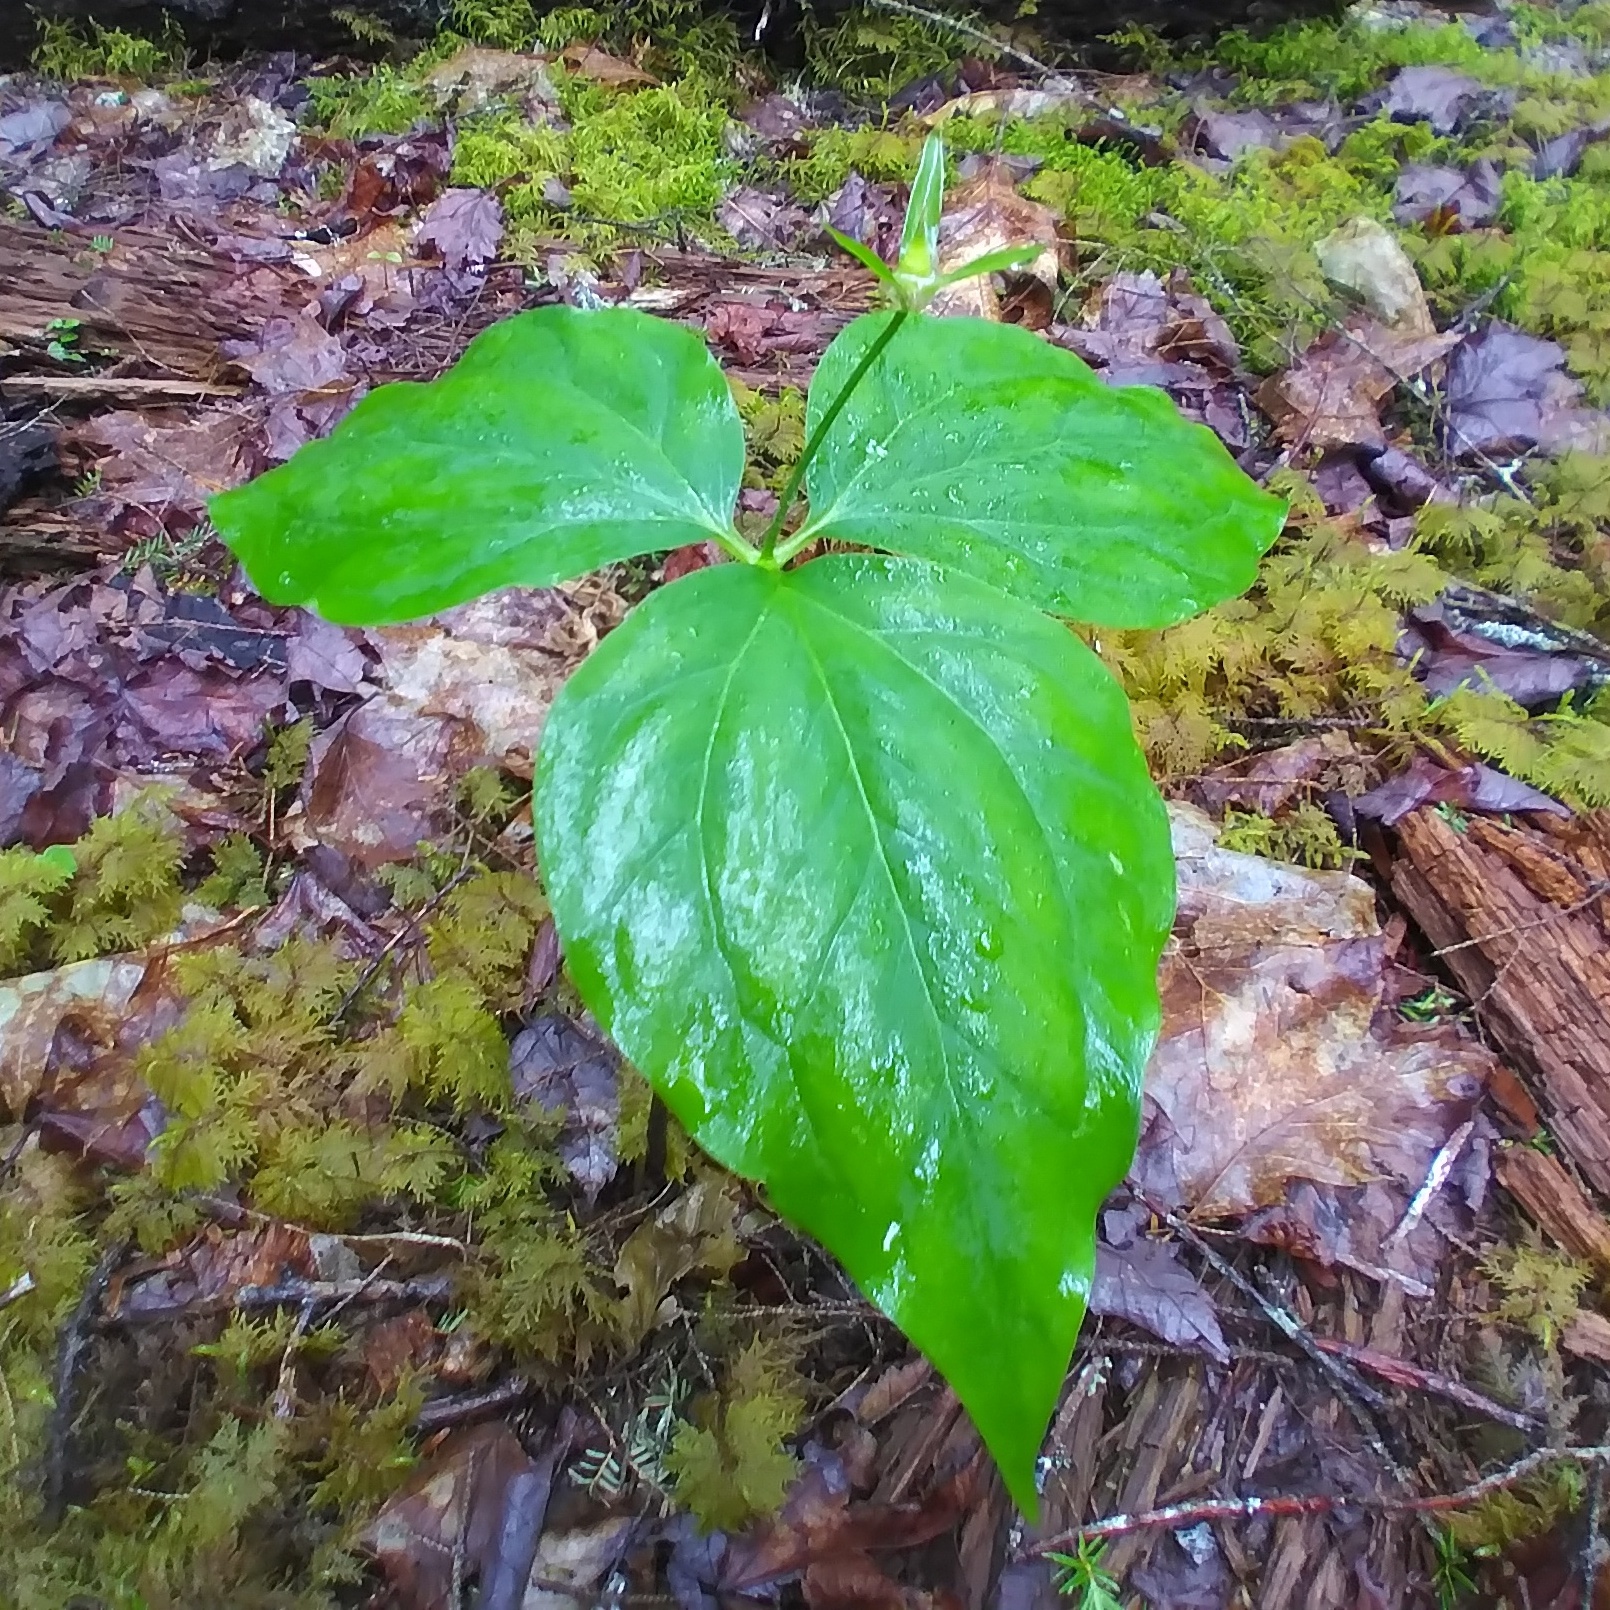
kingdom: Plantae
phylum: Tracheophyta
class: Liliopsida
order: Liliales
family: Melanthiaceae
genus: Trillium
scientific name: Trillium undulatum
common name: Paint trillium
